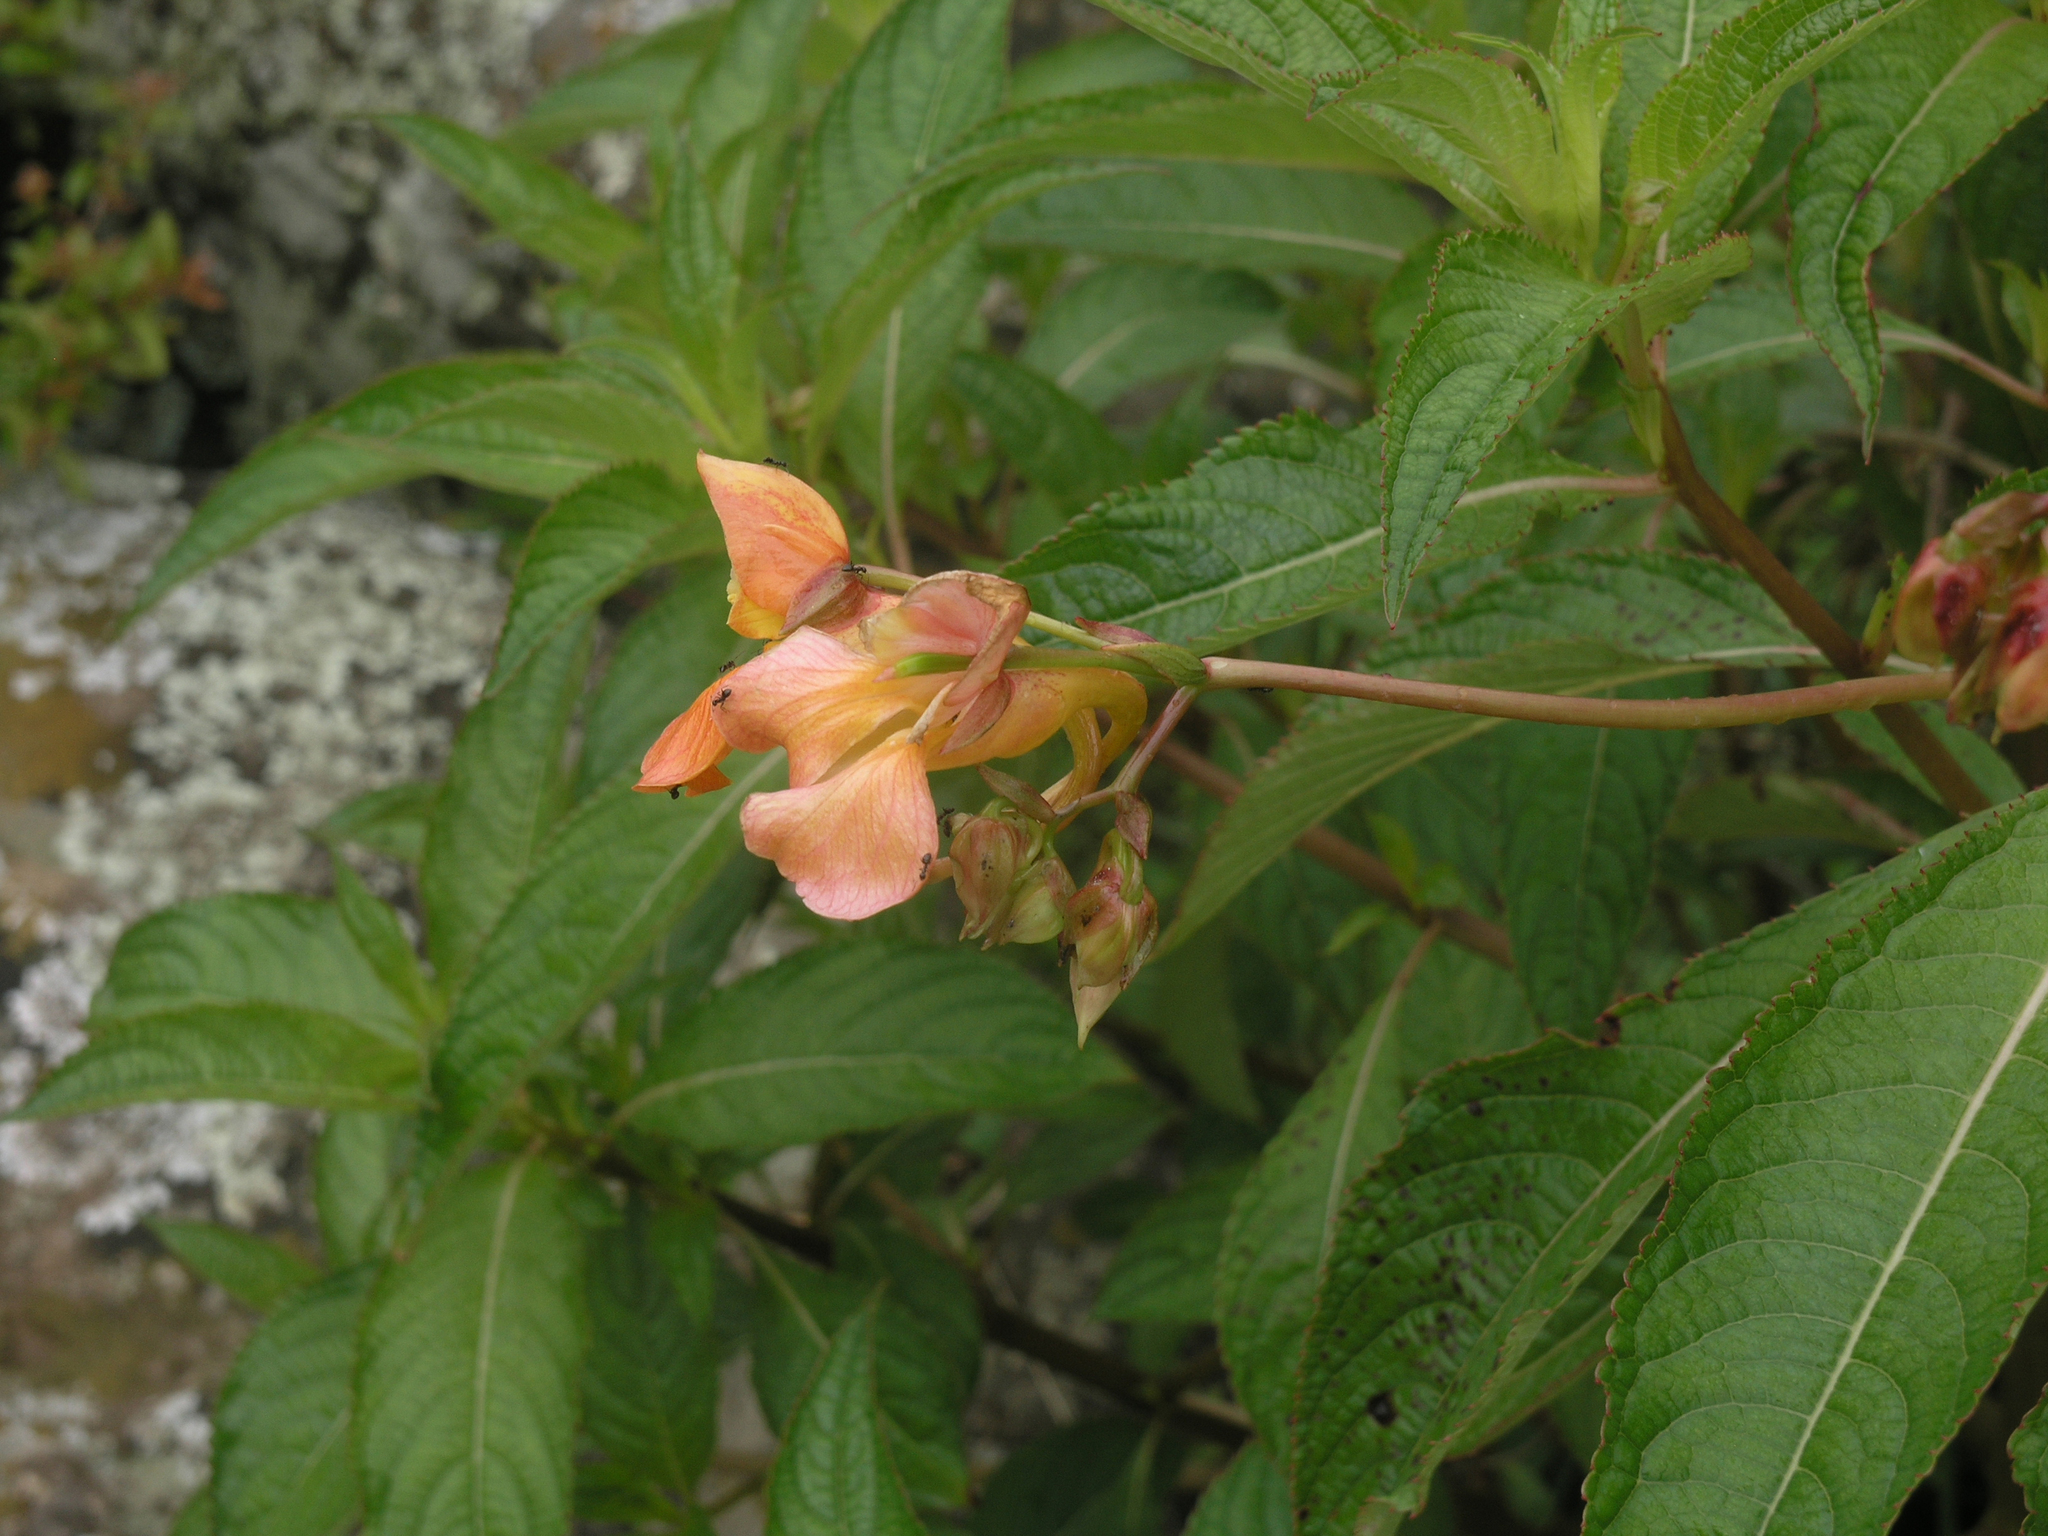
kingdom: Plantae
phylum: Tracheophyta
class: Magnoliopsida
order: Ericales
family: Balsaminaceae
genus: Impatiens
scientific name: Impatiens rothii
